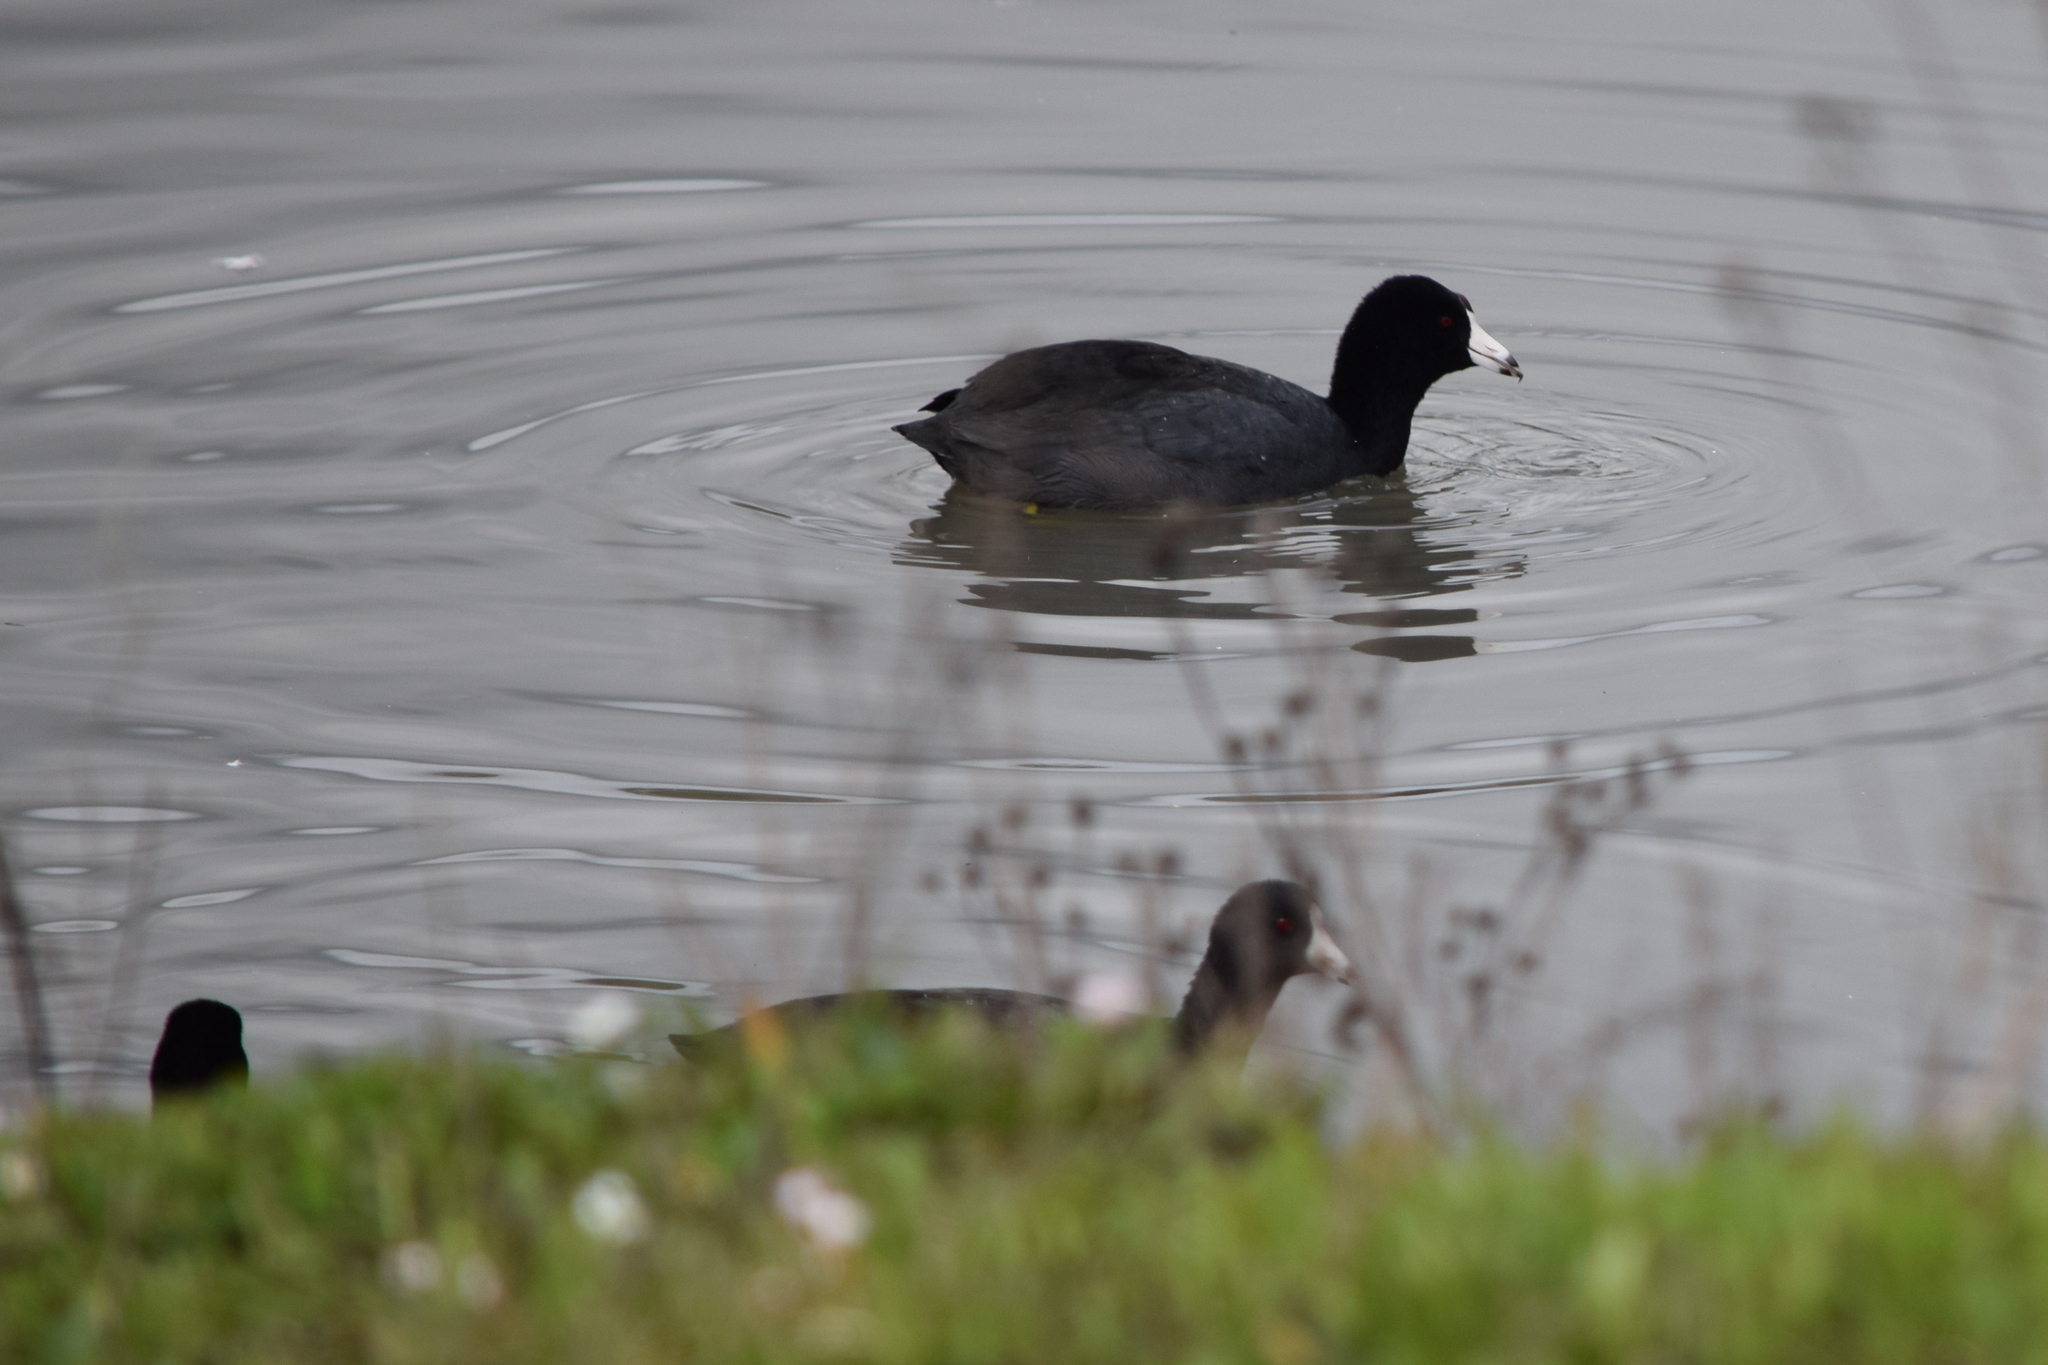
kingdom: Animalia
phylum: Chordata
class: Aves
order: Gruiformes
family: Rallidae
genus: Fulica
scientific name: Fulica americana
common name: American coot
